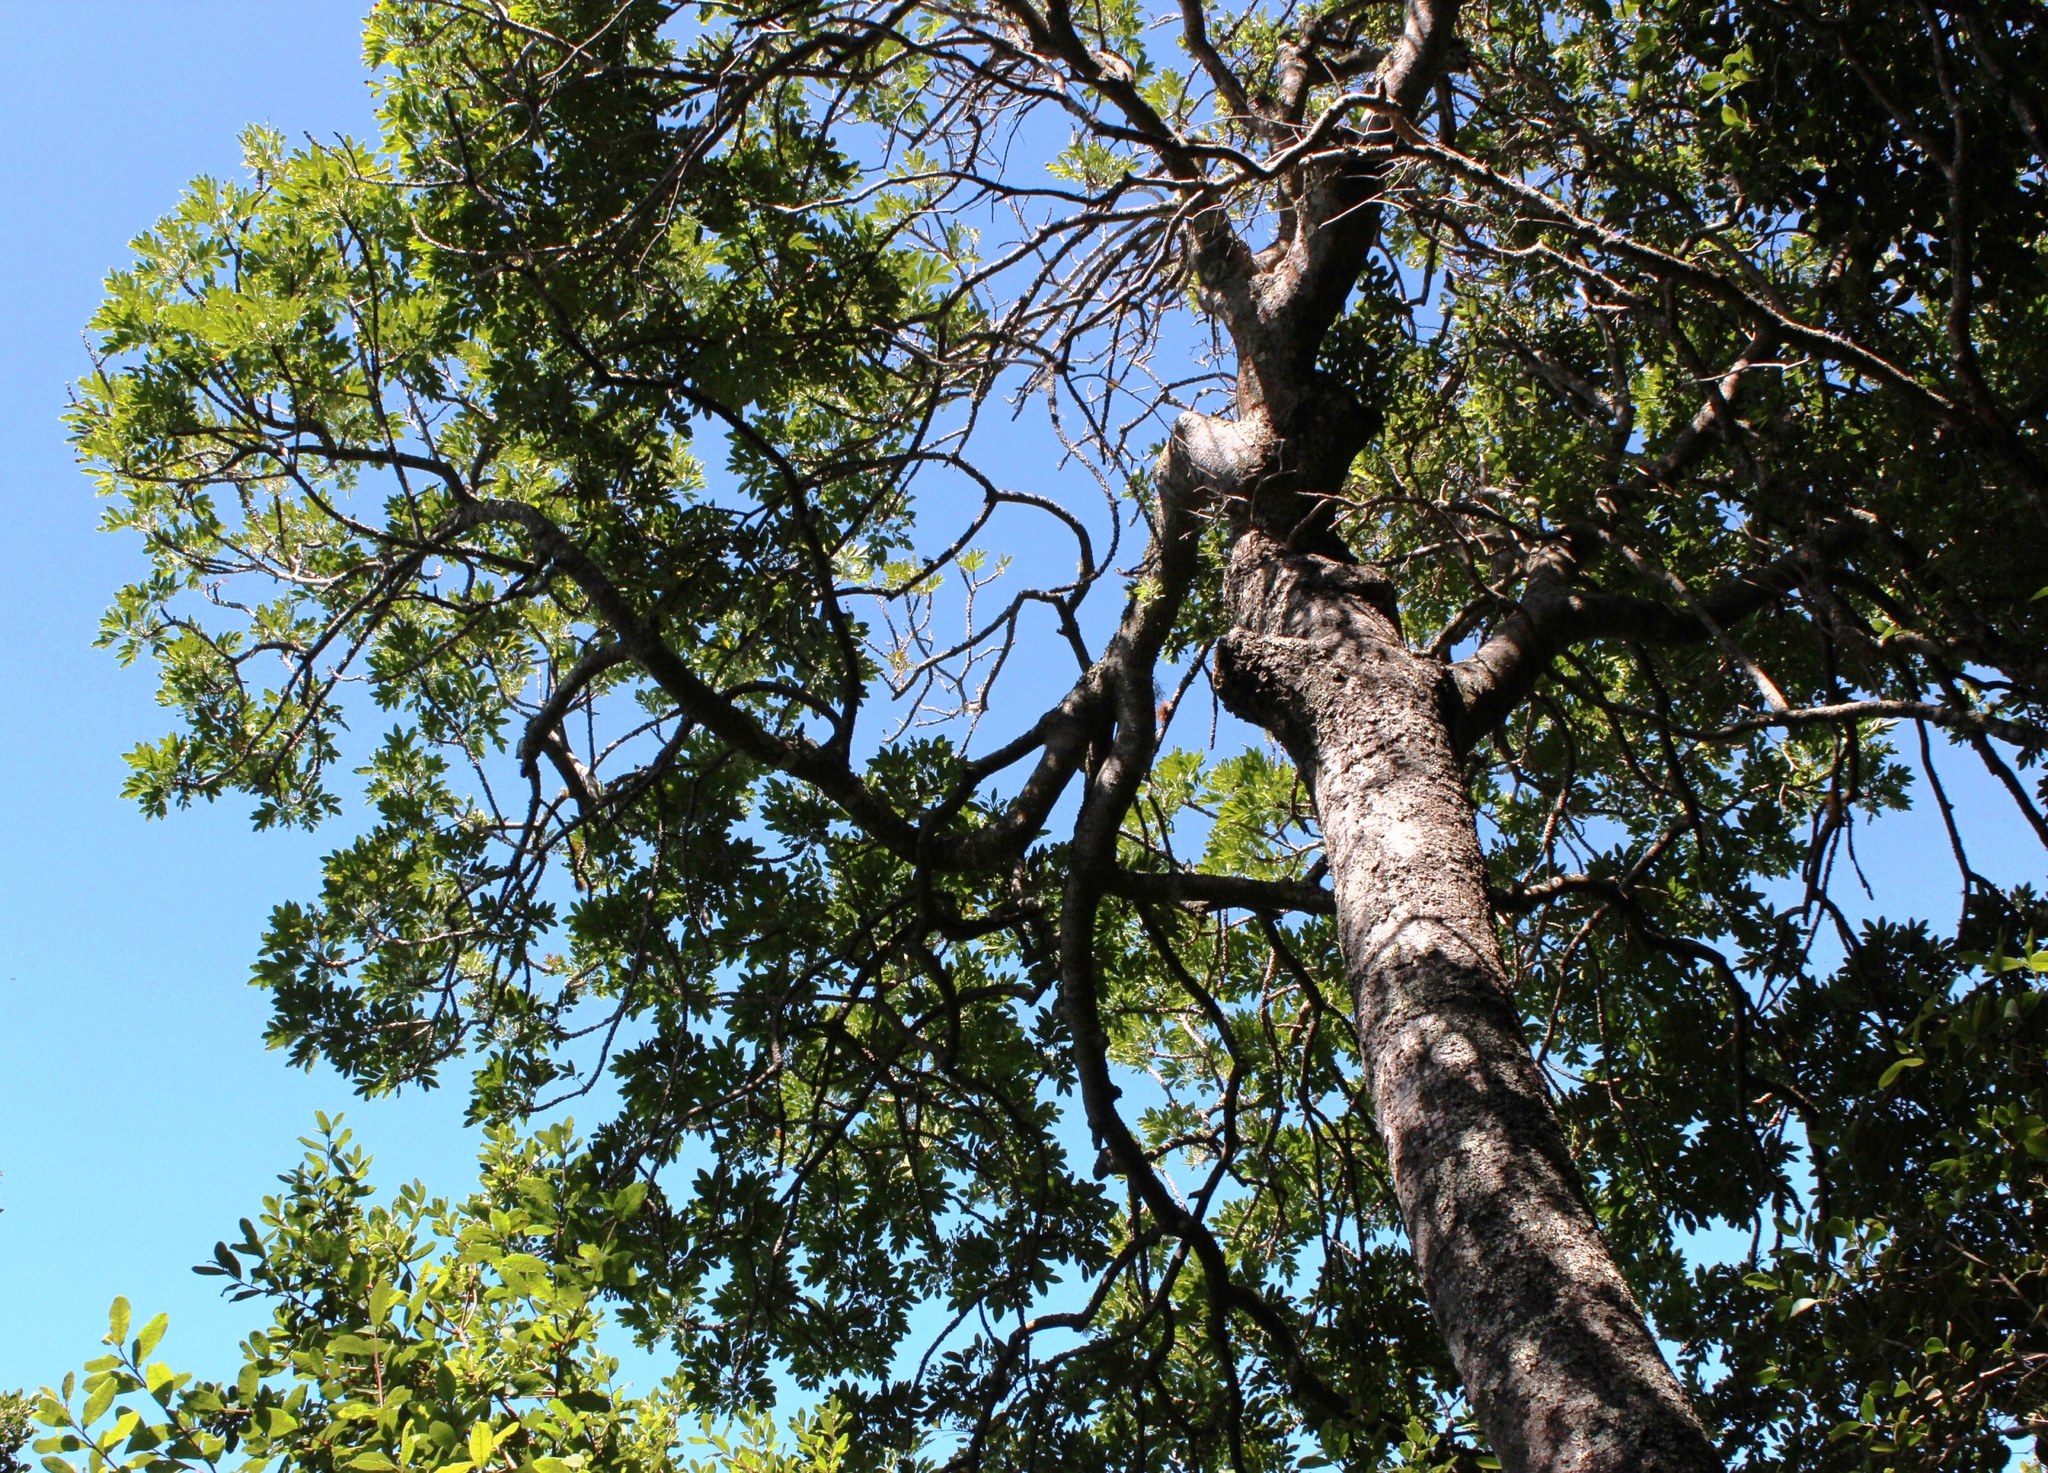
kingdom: Plantae
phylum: Tracheophyta
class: Pinopsida
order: Pinales
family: Podocarpaceae
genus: Afrocarpus
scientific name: Afrocarpus falcatus
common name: Bastard yellowwood
